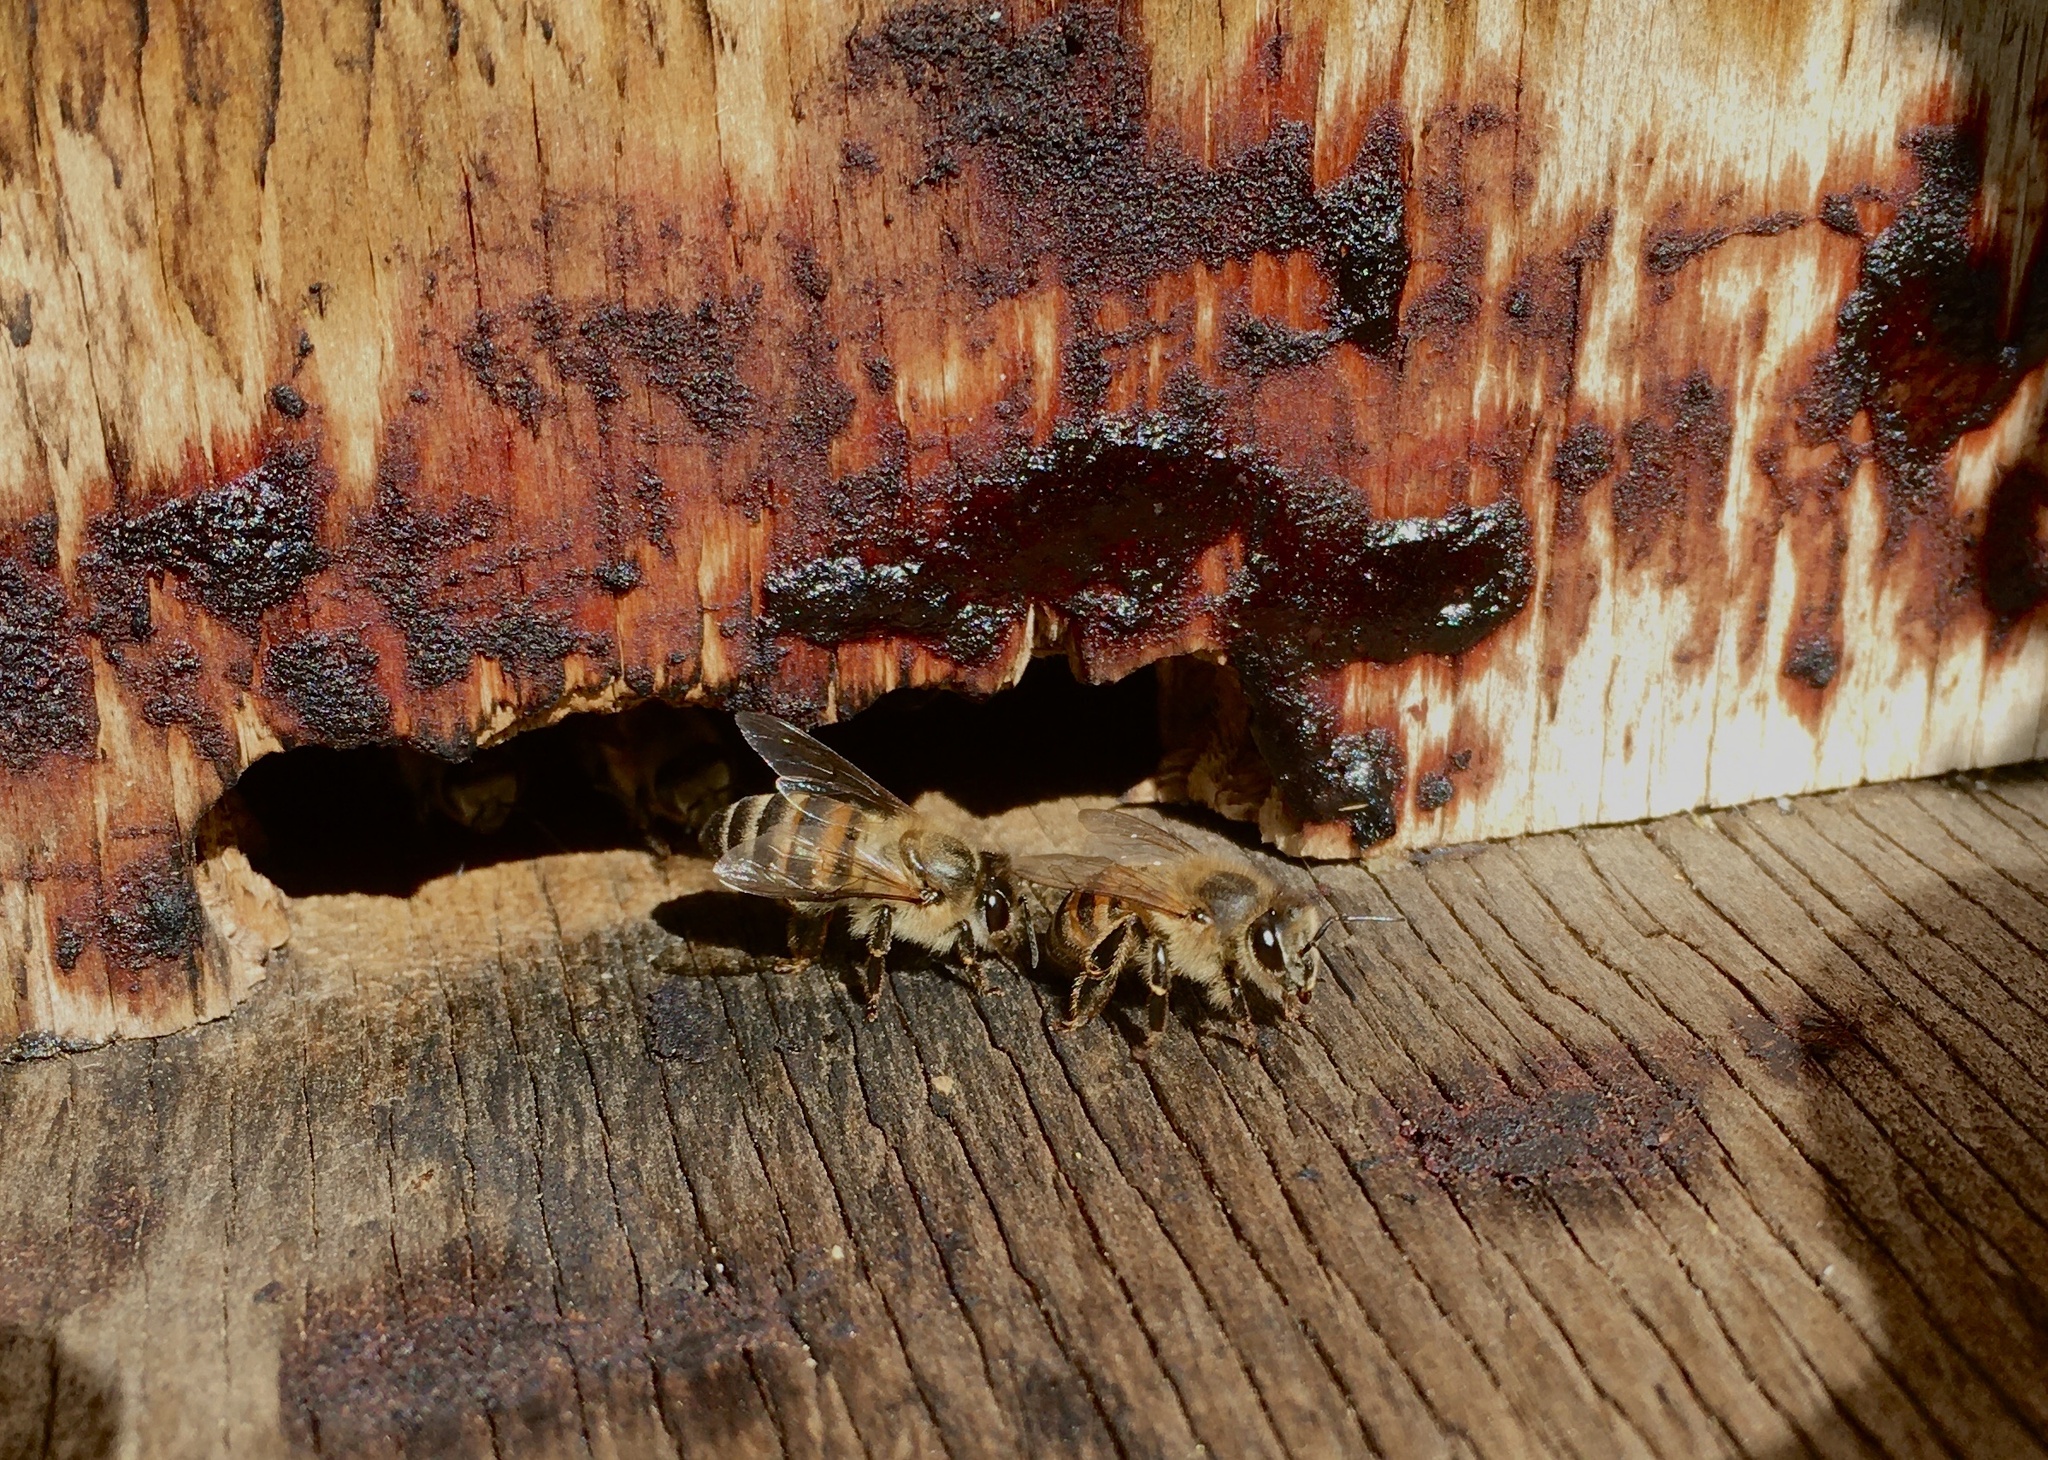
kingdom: Animalia
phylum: Arthropoda
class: Insecta
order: Hymenoptera
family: Apidae
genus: Apis
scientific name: Apis mellifera
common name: Honey bee
